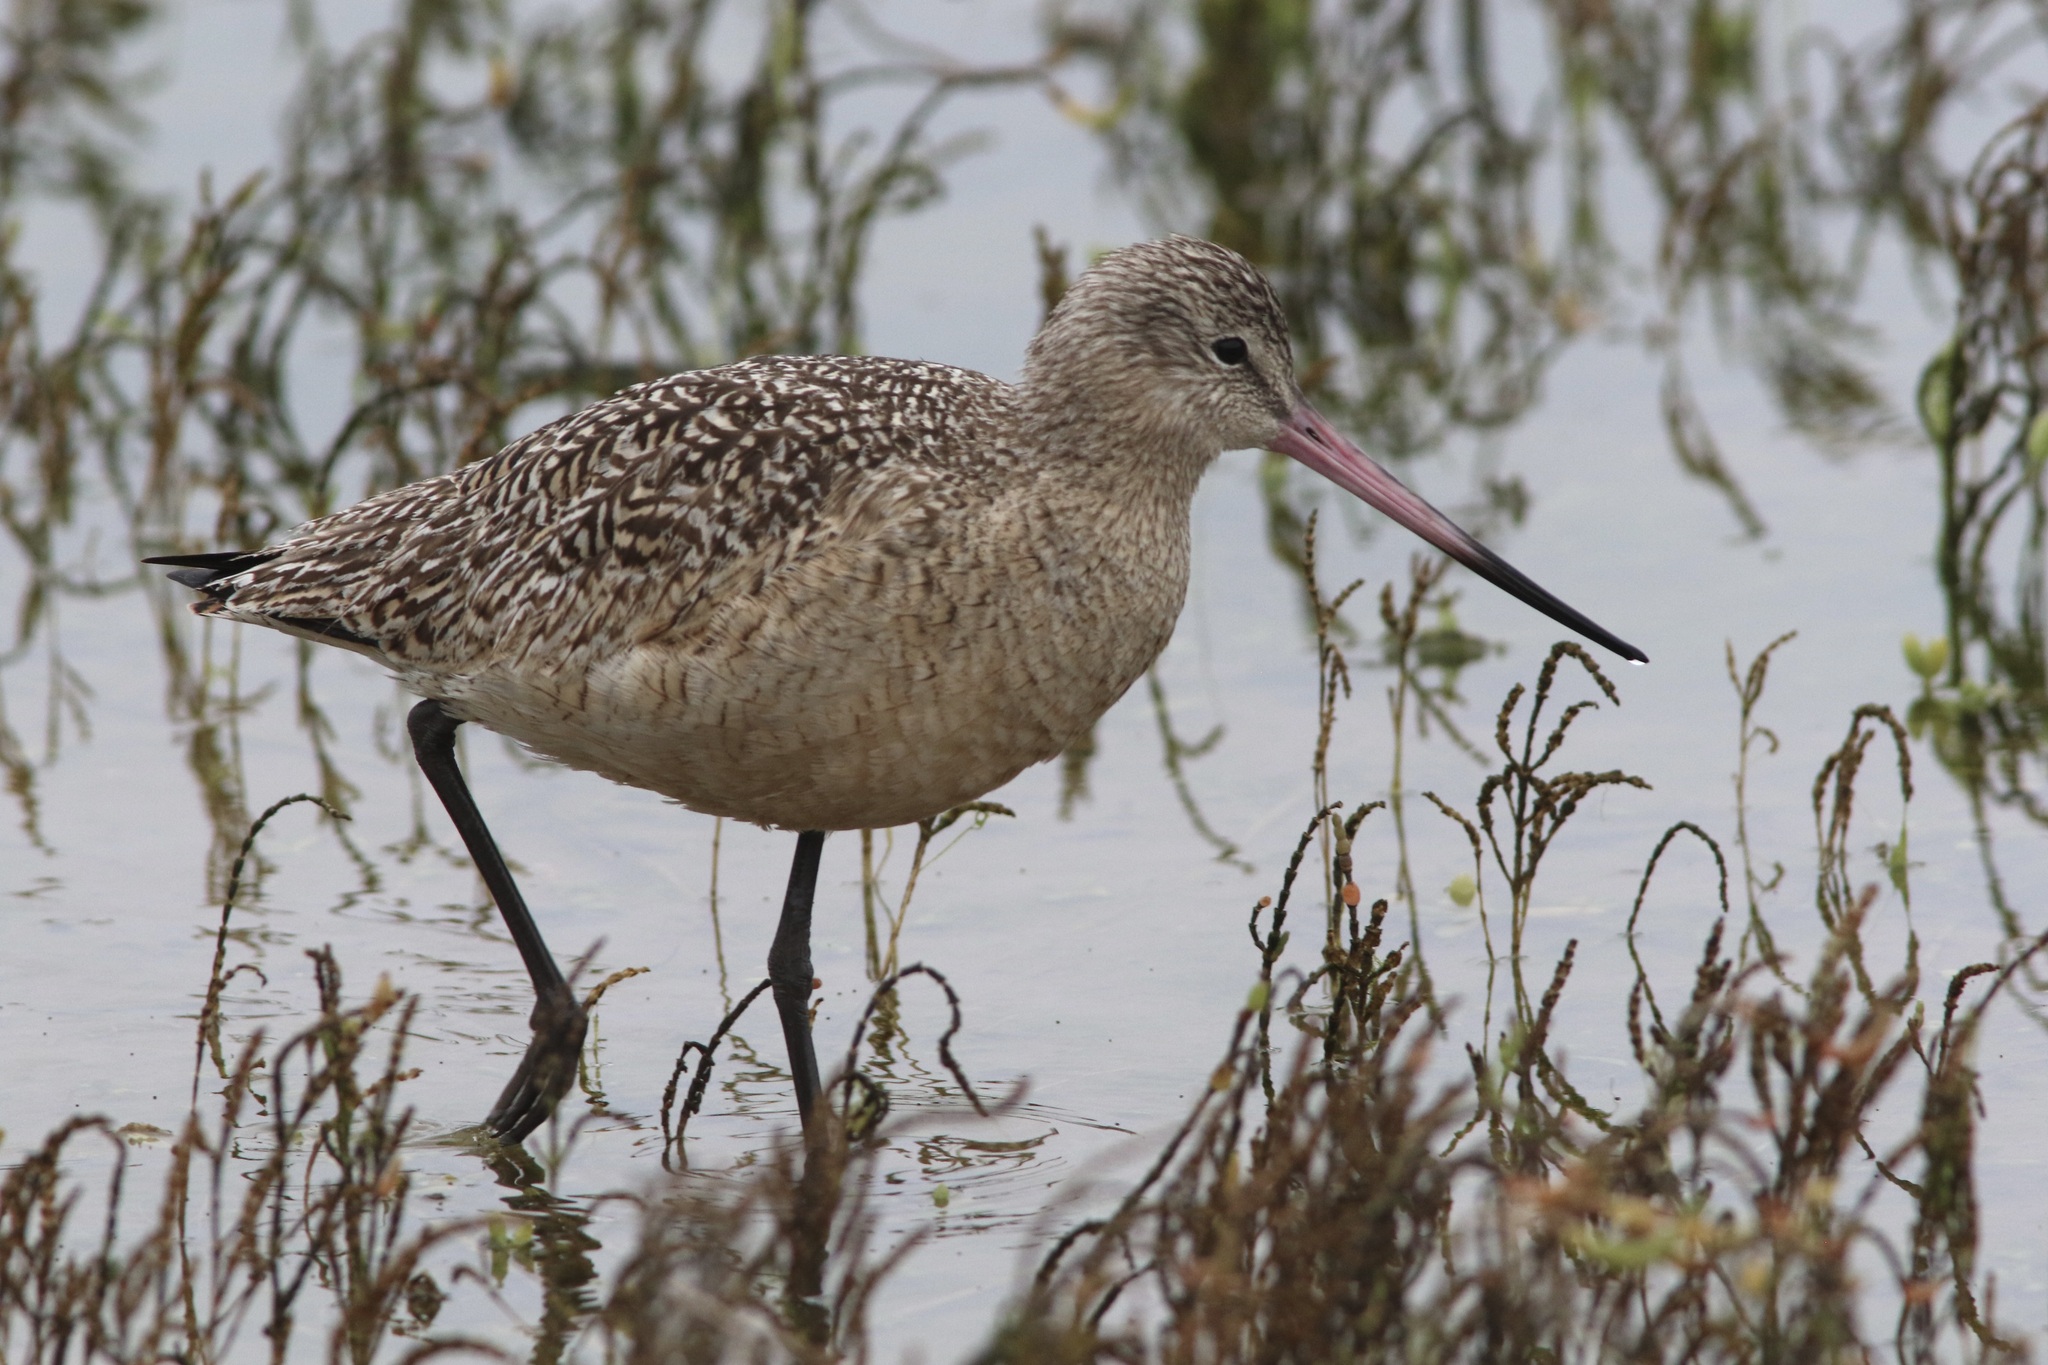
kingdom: Animalia
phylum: Chordata
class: Aves
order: Charadriiformes
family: Scolopacidae
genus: Limosa
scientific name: Limosa fedoa
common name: Marbled godwit
